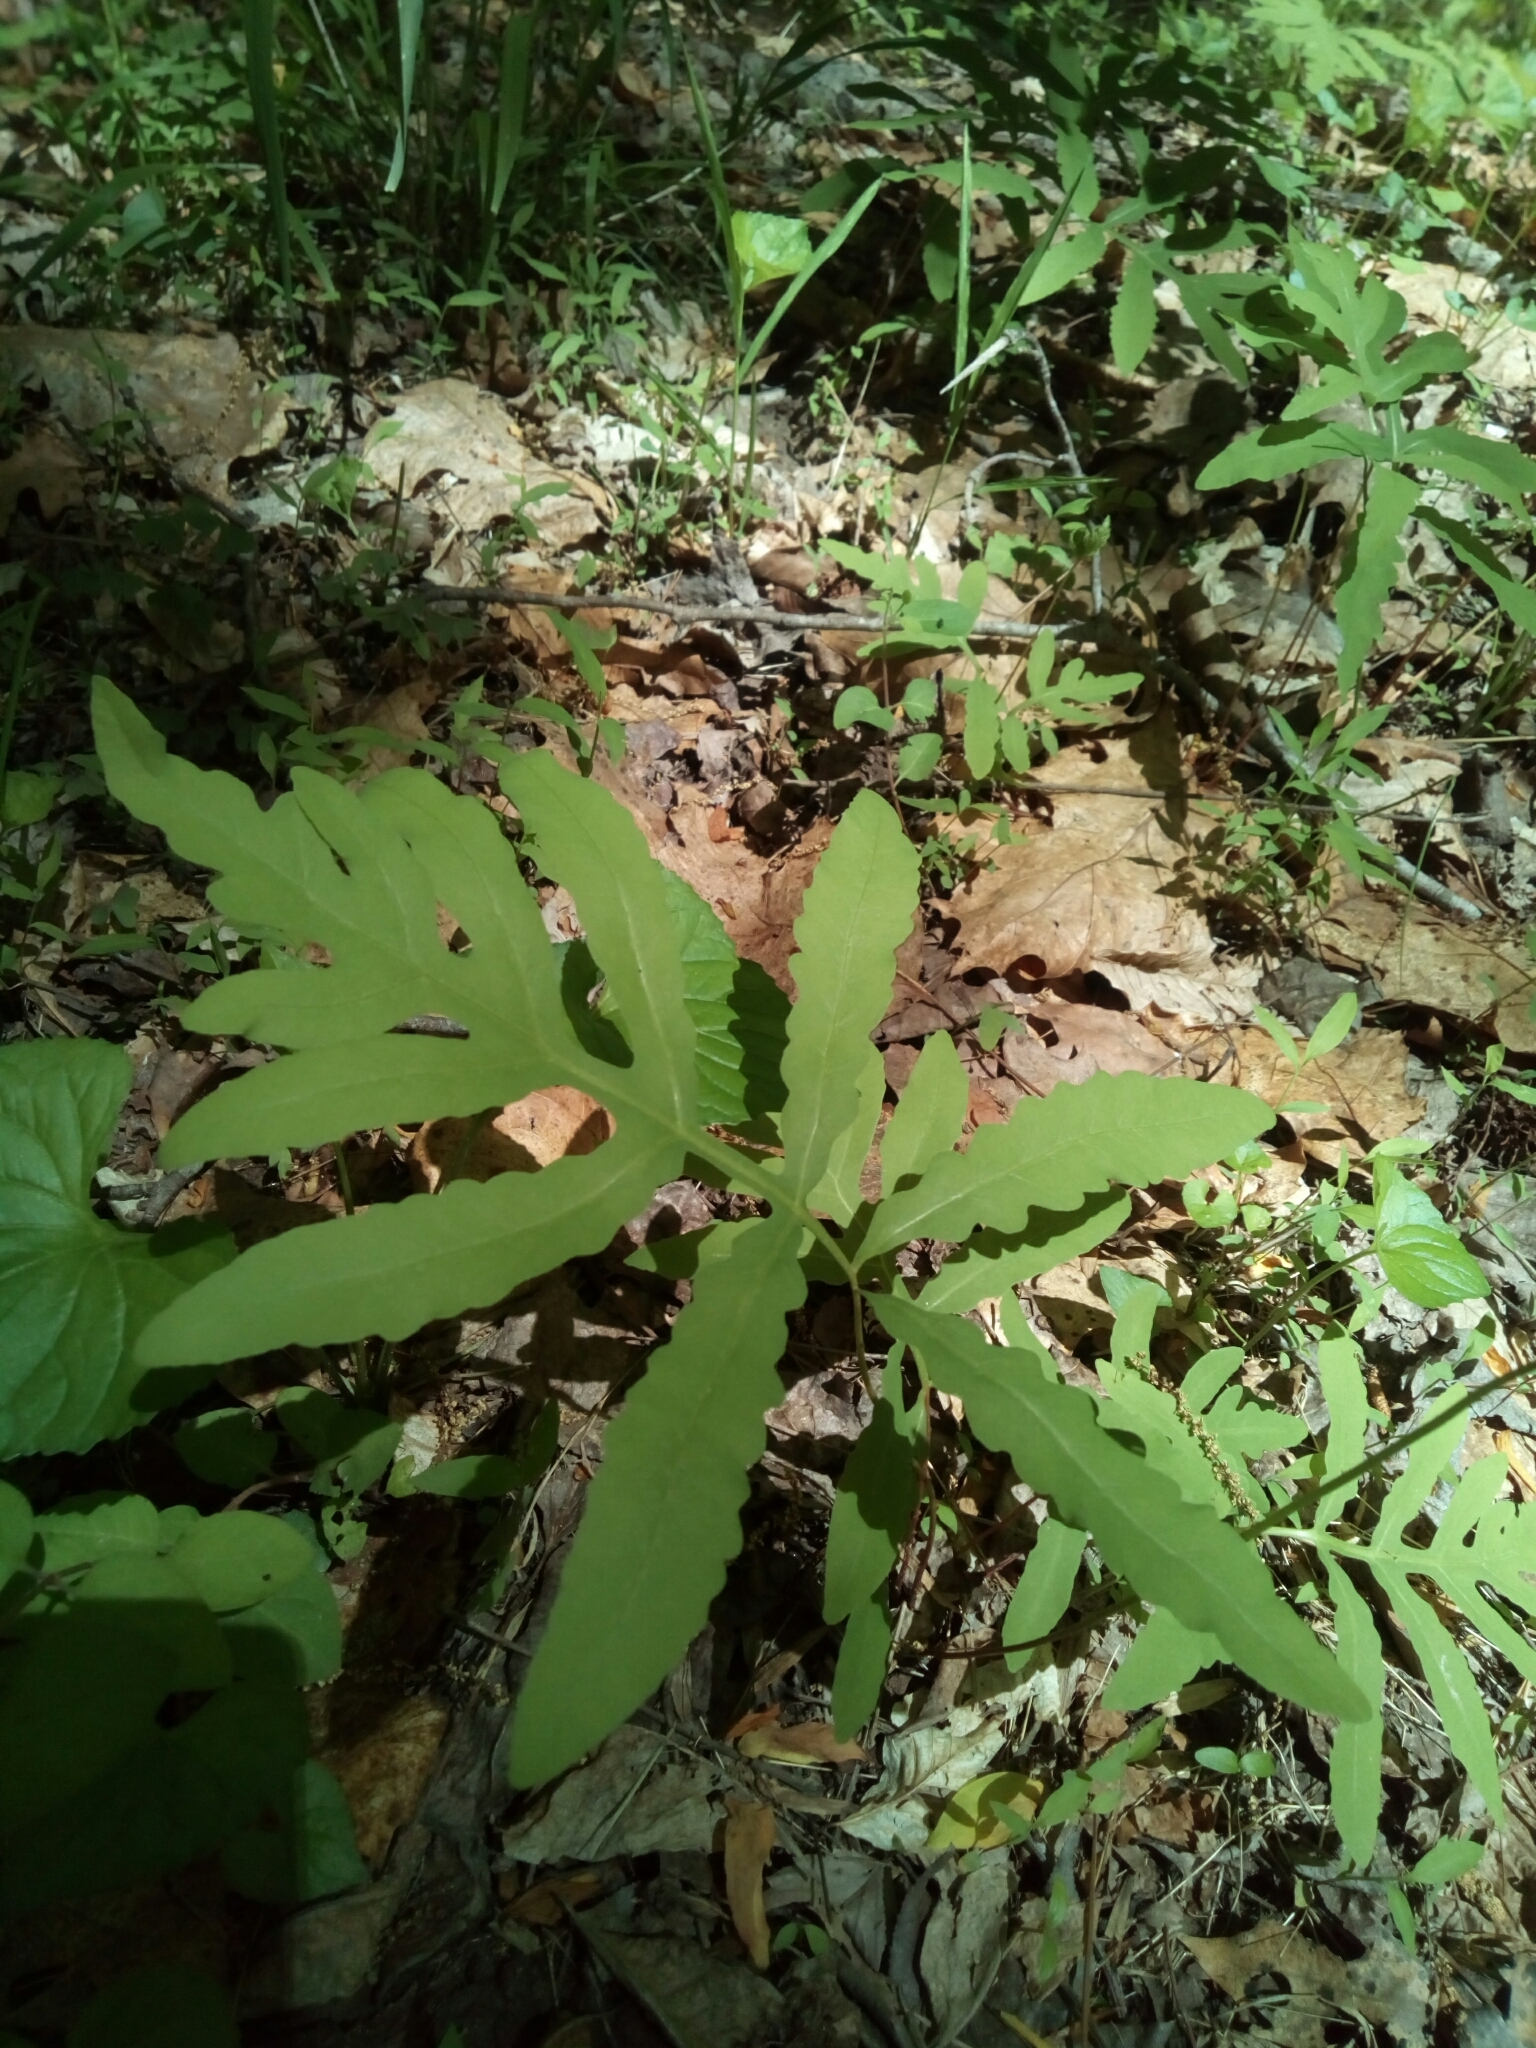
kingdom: Plantae
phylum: Tracheophyta
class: Polypodiopsida
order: Polypodiales
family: Onocleaceae
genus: Onoclea
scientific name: Onoclea sensibilis
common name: Sensitive fern
